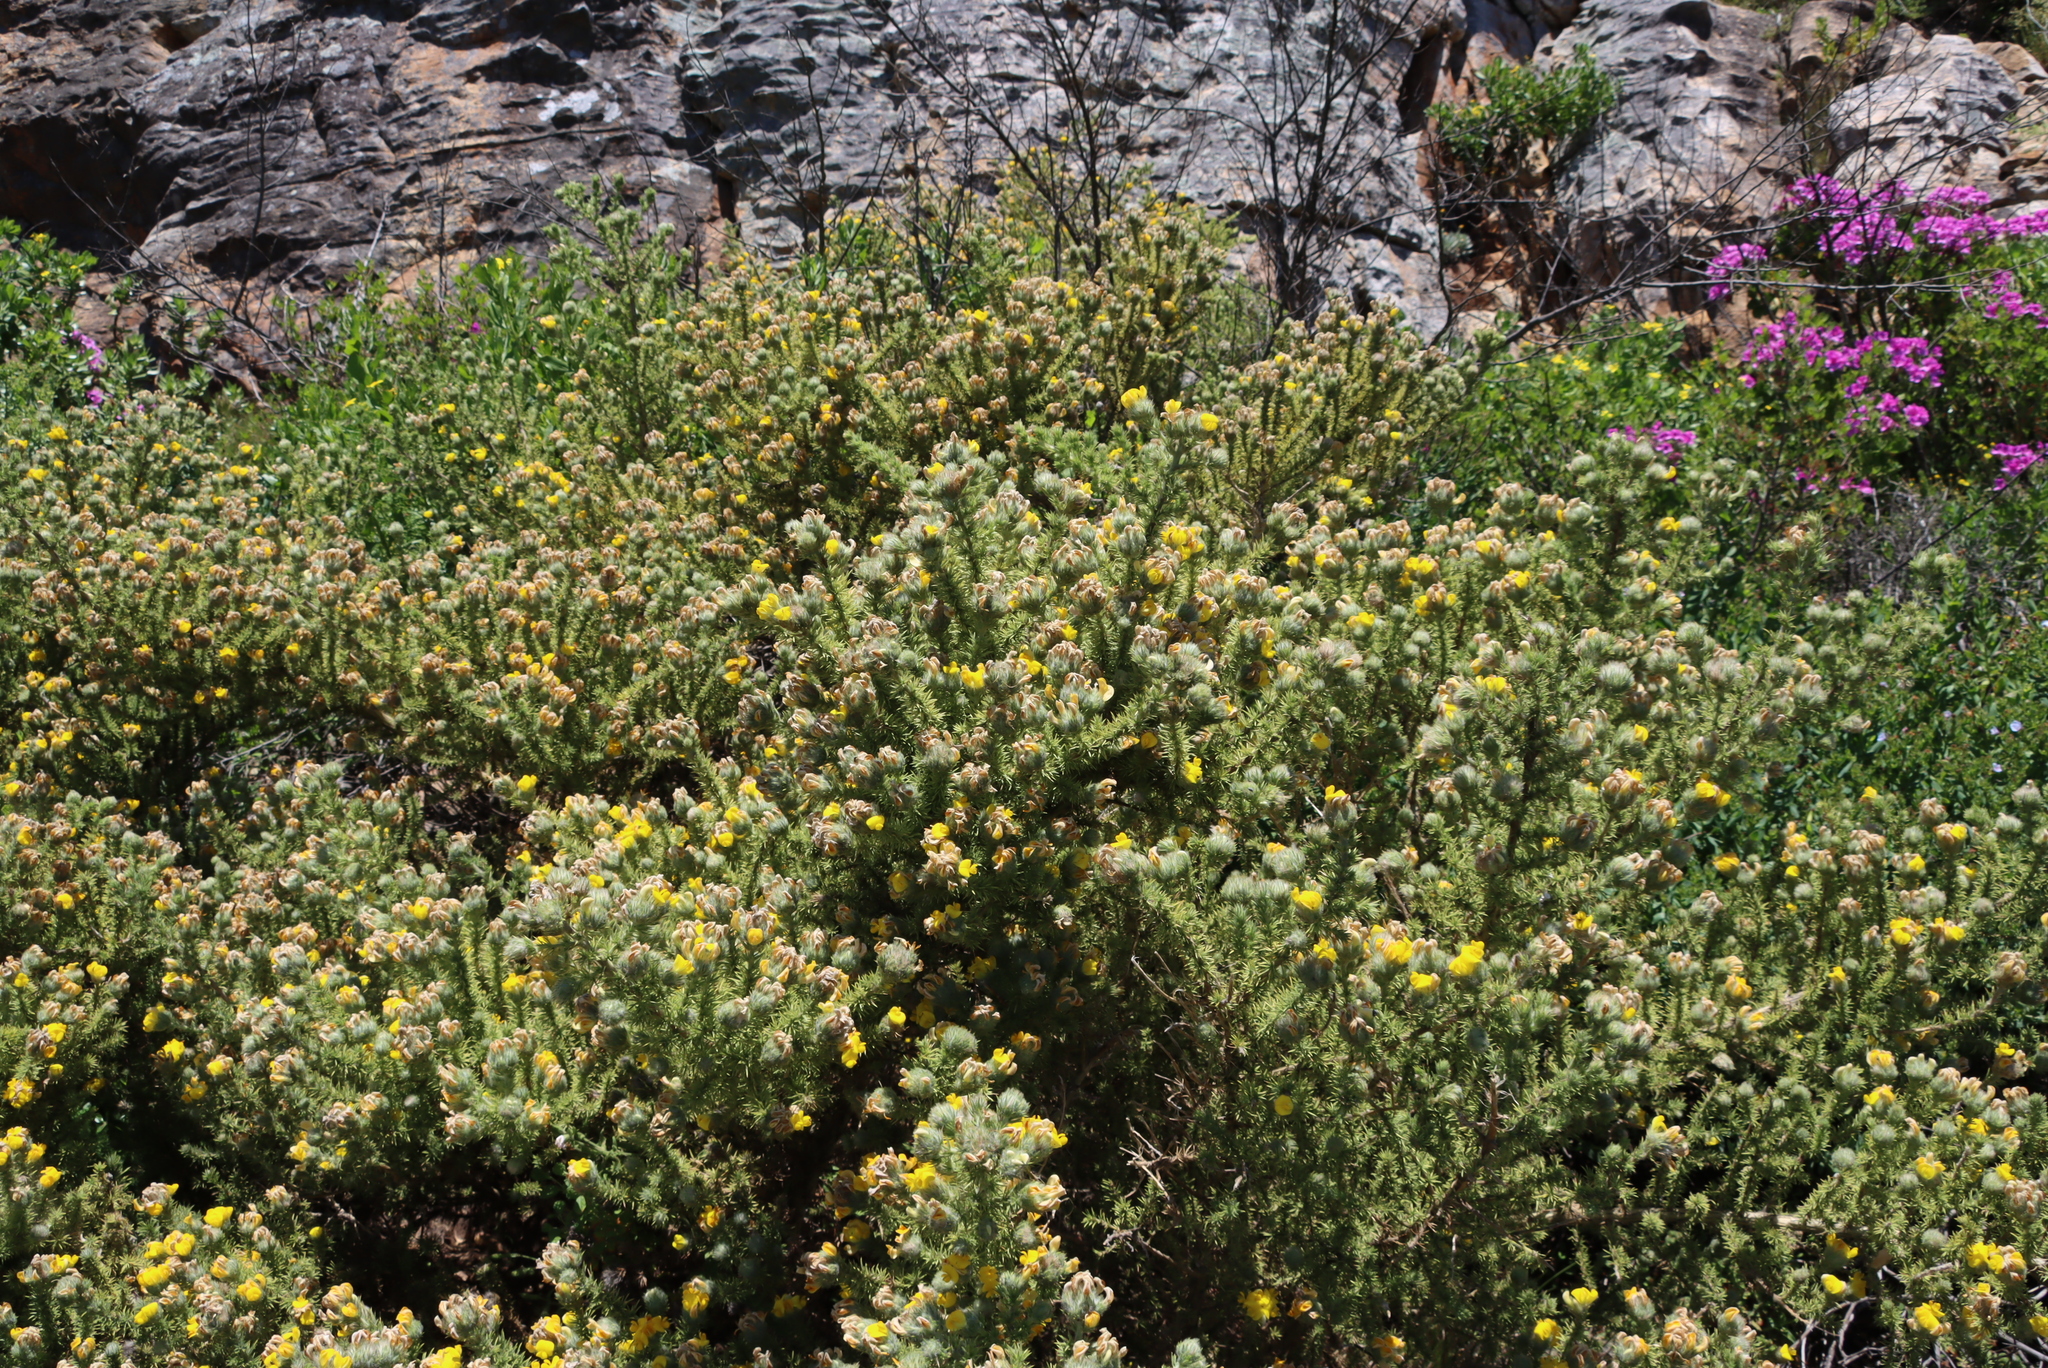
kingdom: Plantae
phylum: Tracheophyta
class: Magnoliopsida
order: Fabales
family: Fabaceae
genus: Aspalathus
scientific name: Aspalathus chenopoda
